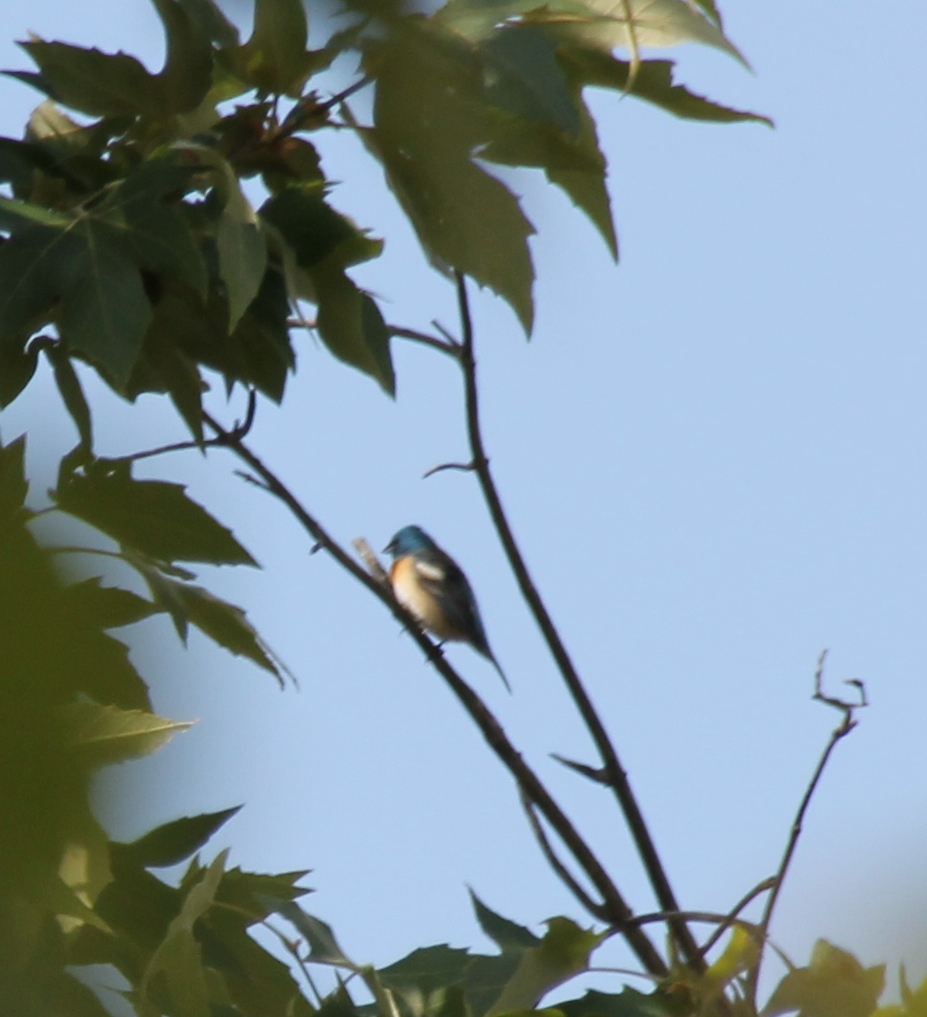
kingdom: Animalia
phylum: Chordata
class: Aves
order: Passeriformes
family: Cardinalidae
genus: Passerina
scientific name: Passerina amoena
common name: Lazuli bunting
